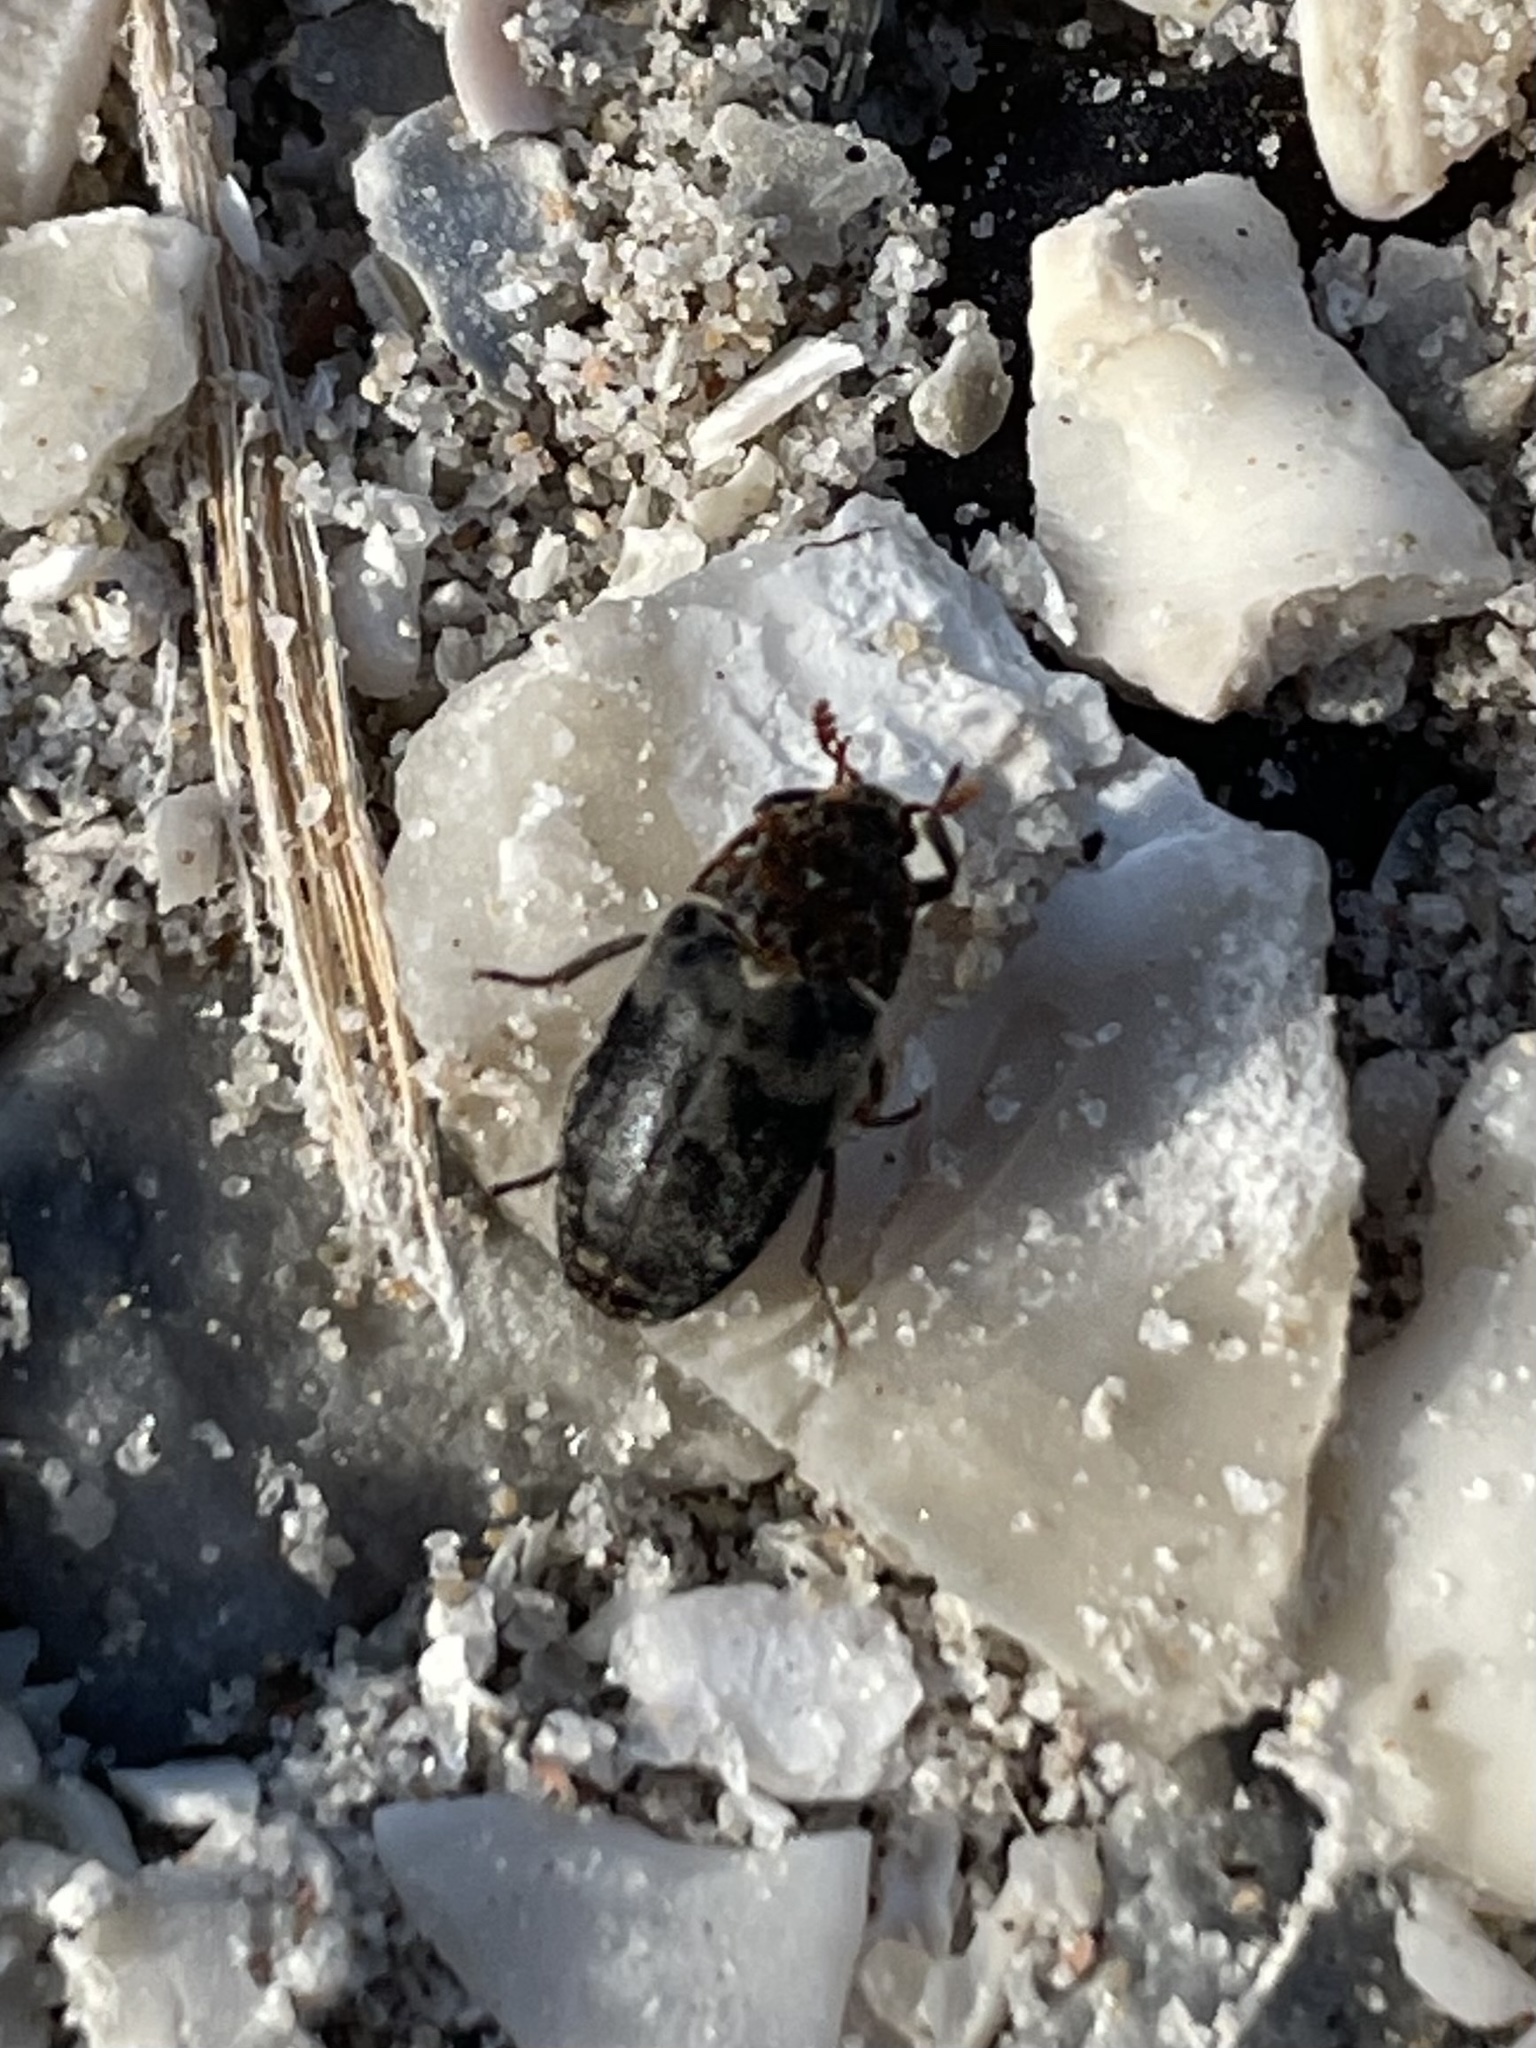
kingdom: Animalia
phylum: Arthropoda
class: Insecta
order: Coleoptera
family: Dermestidae
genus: Dermestes
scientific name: Dermestes caninus
